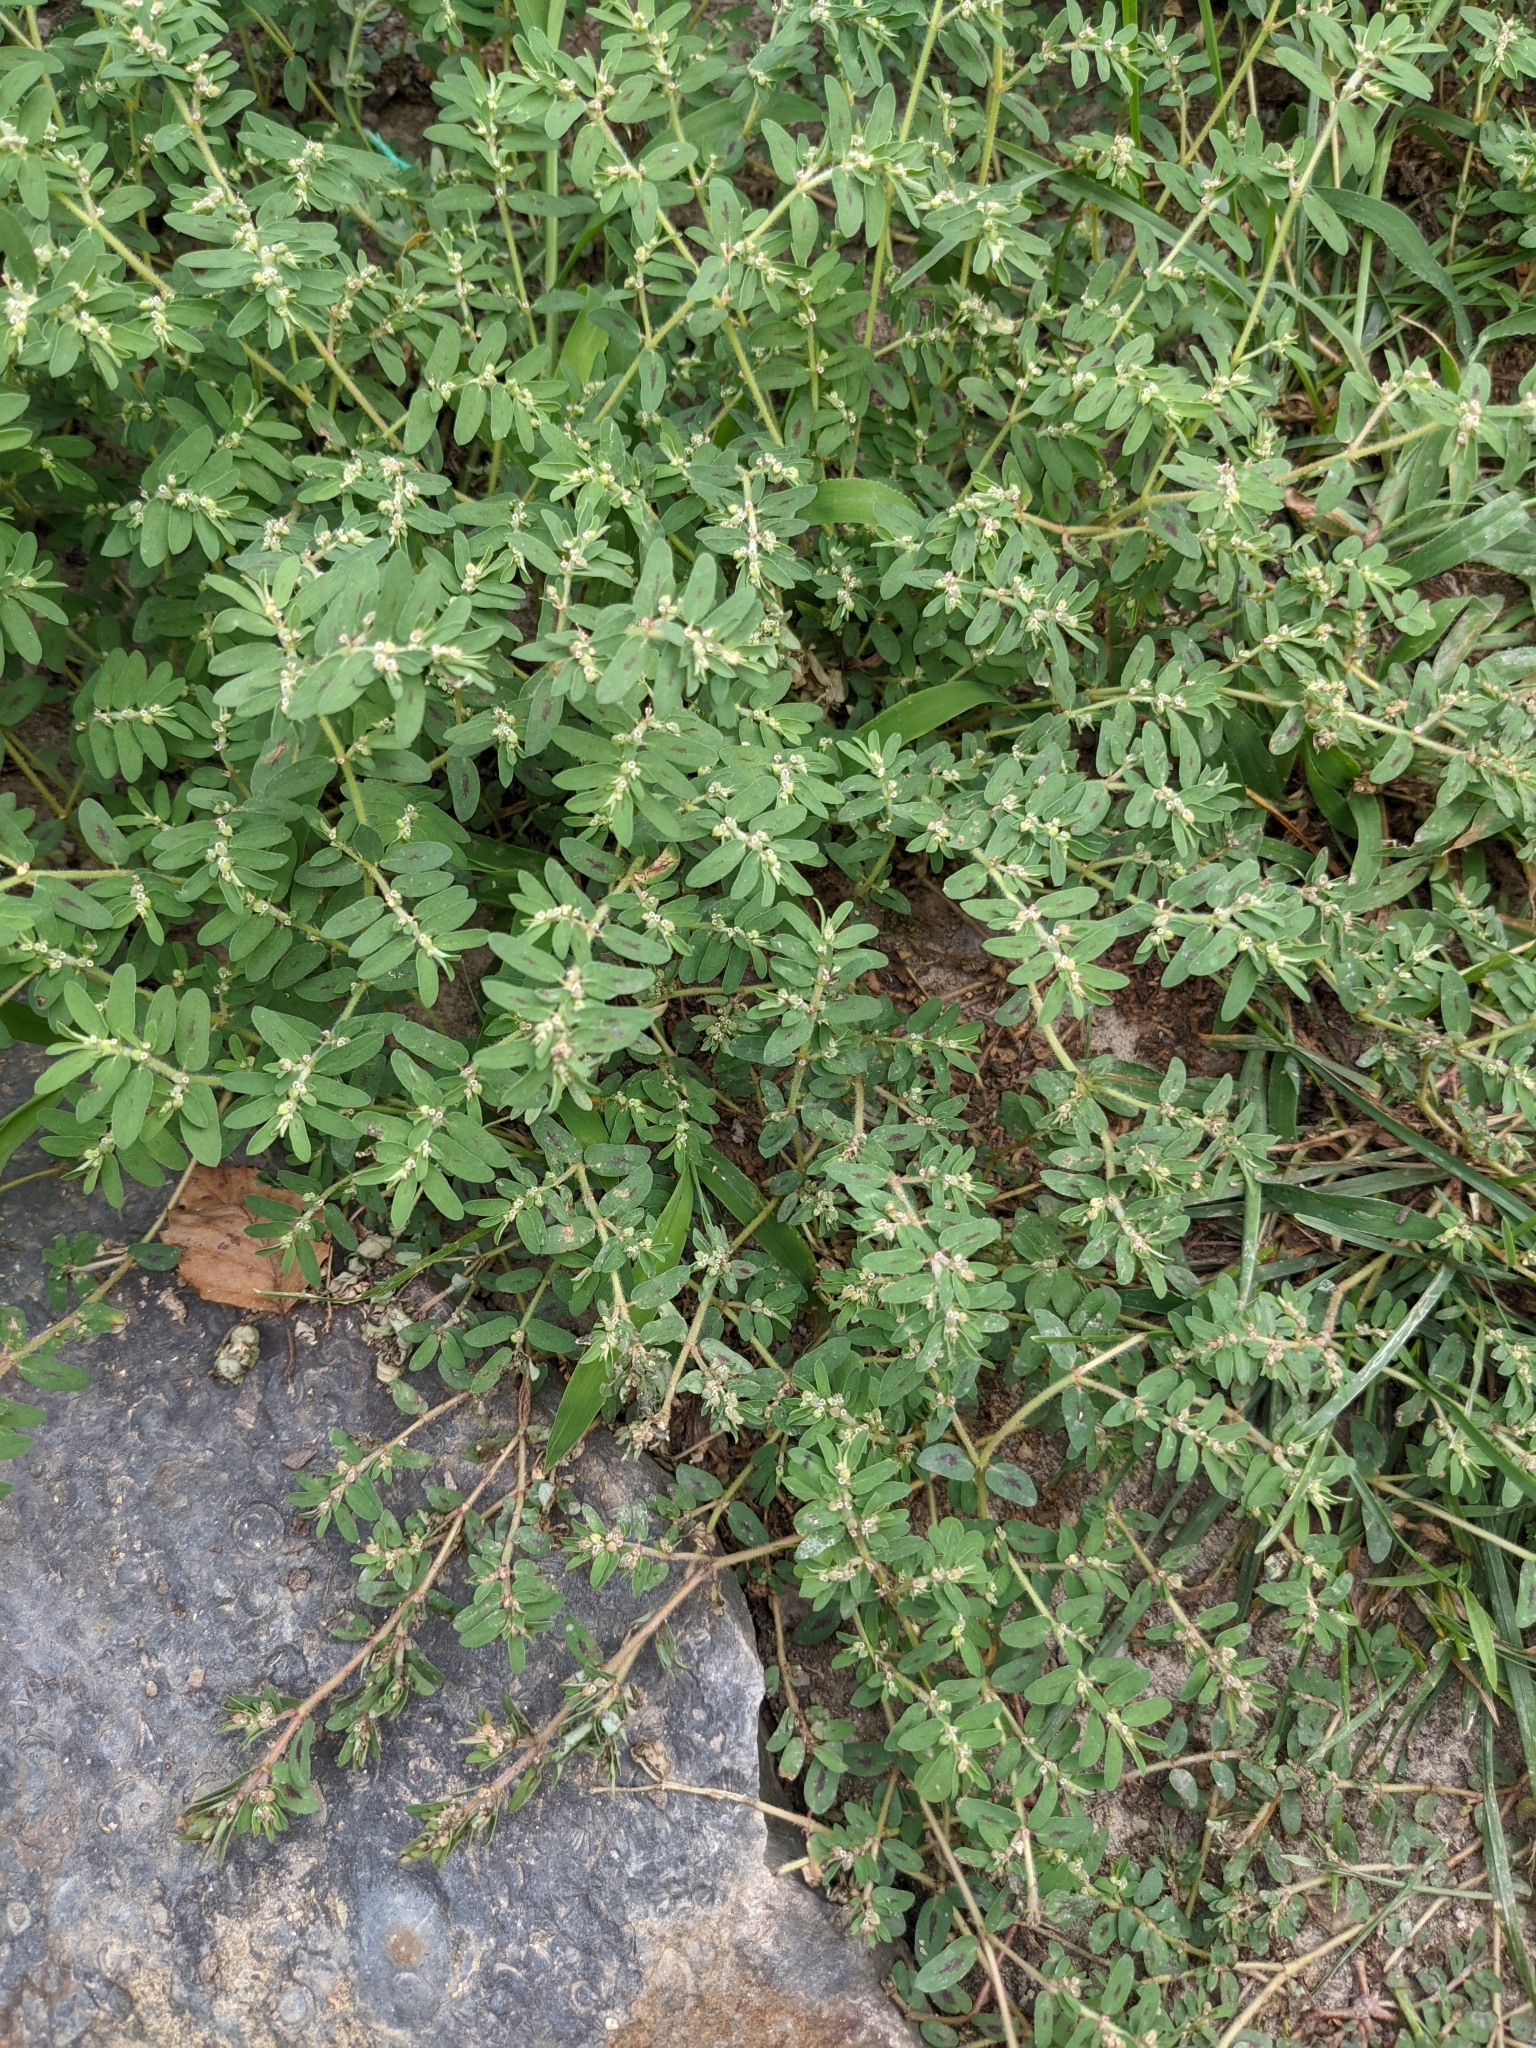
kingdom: Plantae
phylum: Tracheophyta
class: Magnoliopsida
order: Malpighiales
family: Euphorbiaceae
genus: Euphorbia
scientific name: Euphorbia maculata
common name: Spotted spurge
